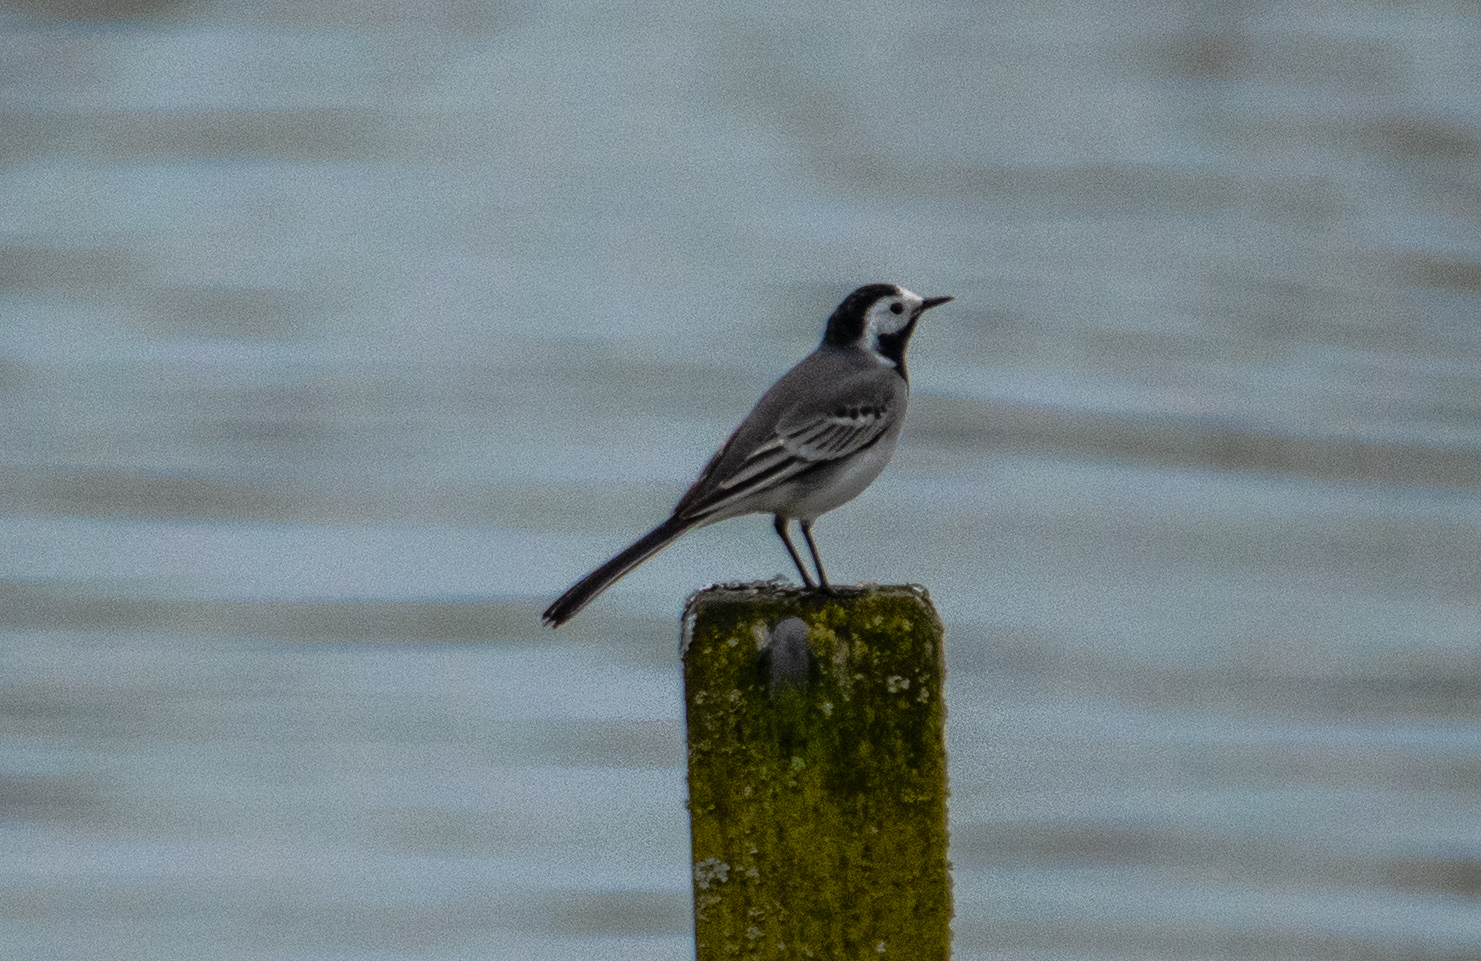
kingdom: Animalia
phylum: Chordata
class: Aves
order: Passeriformes
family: Motacillidae
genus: Motacilla
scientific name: Motacilla alba
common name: White wagtail
